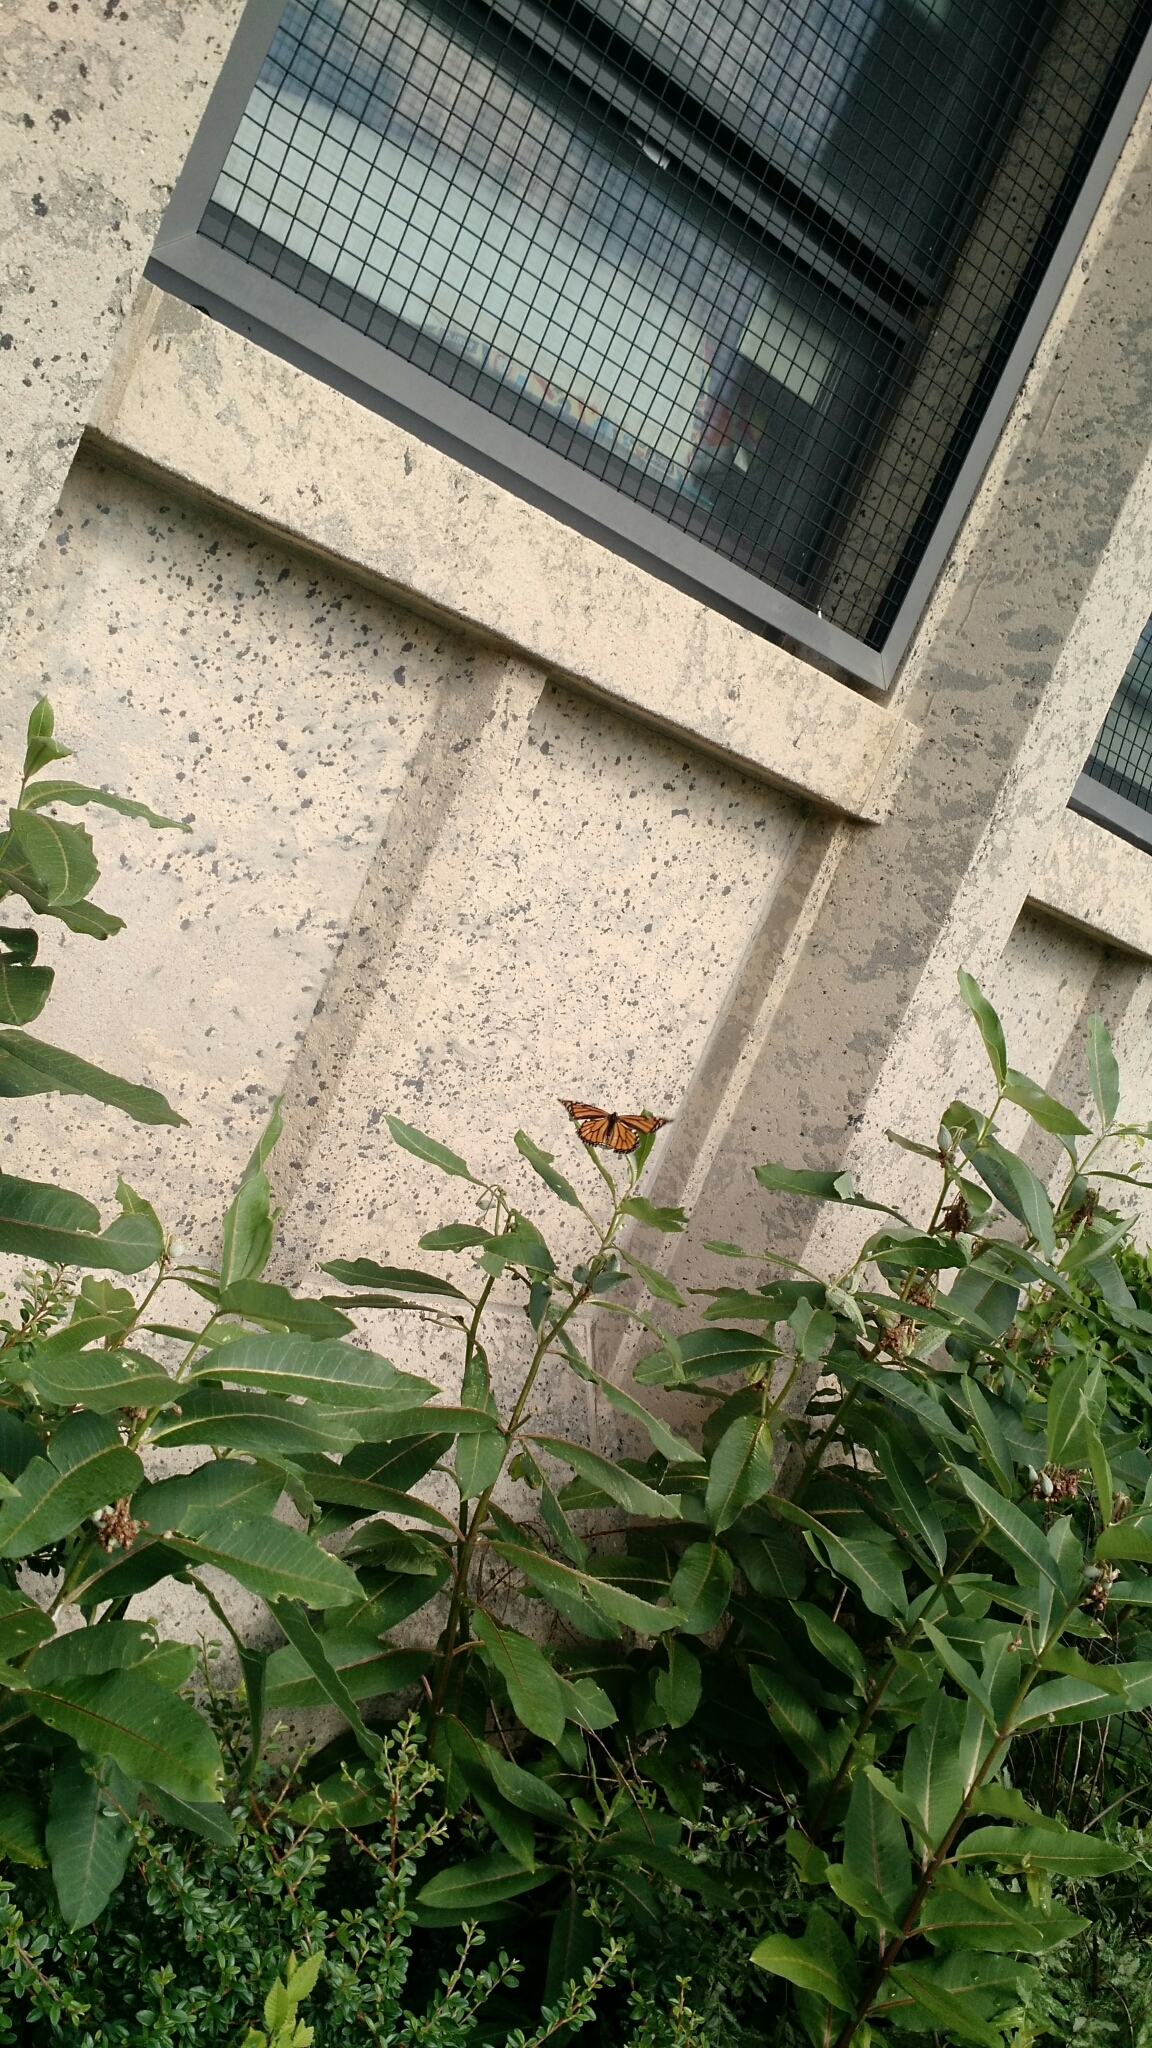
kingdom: Plantae
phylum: Tracheophyta
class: Magnoliopsida
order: Gentianales
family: Apocynaceae
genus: Asclepias
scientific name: Asclepias syriaca
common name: Common milkweed
